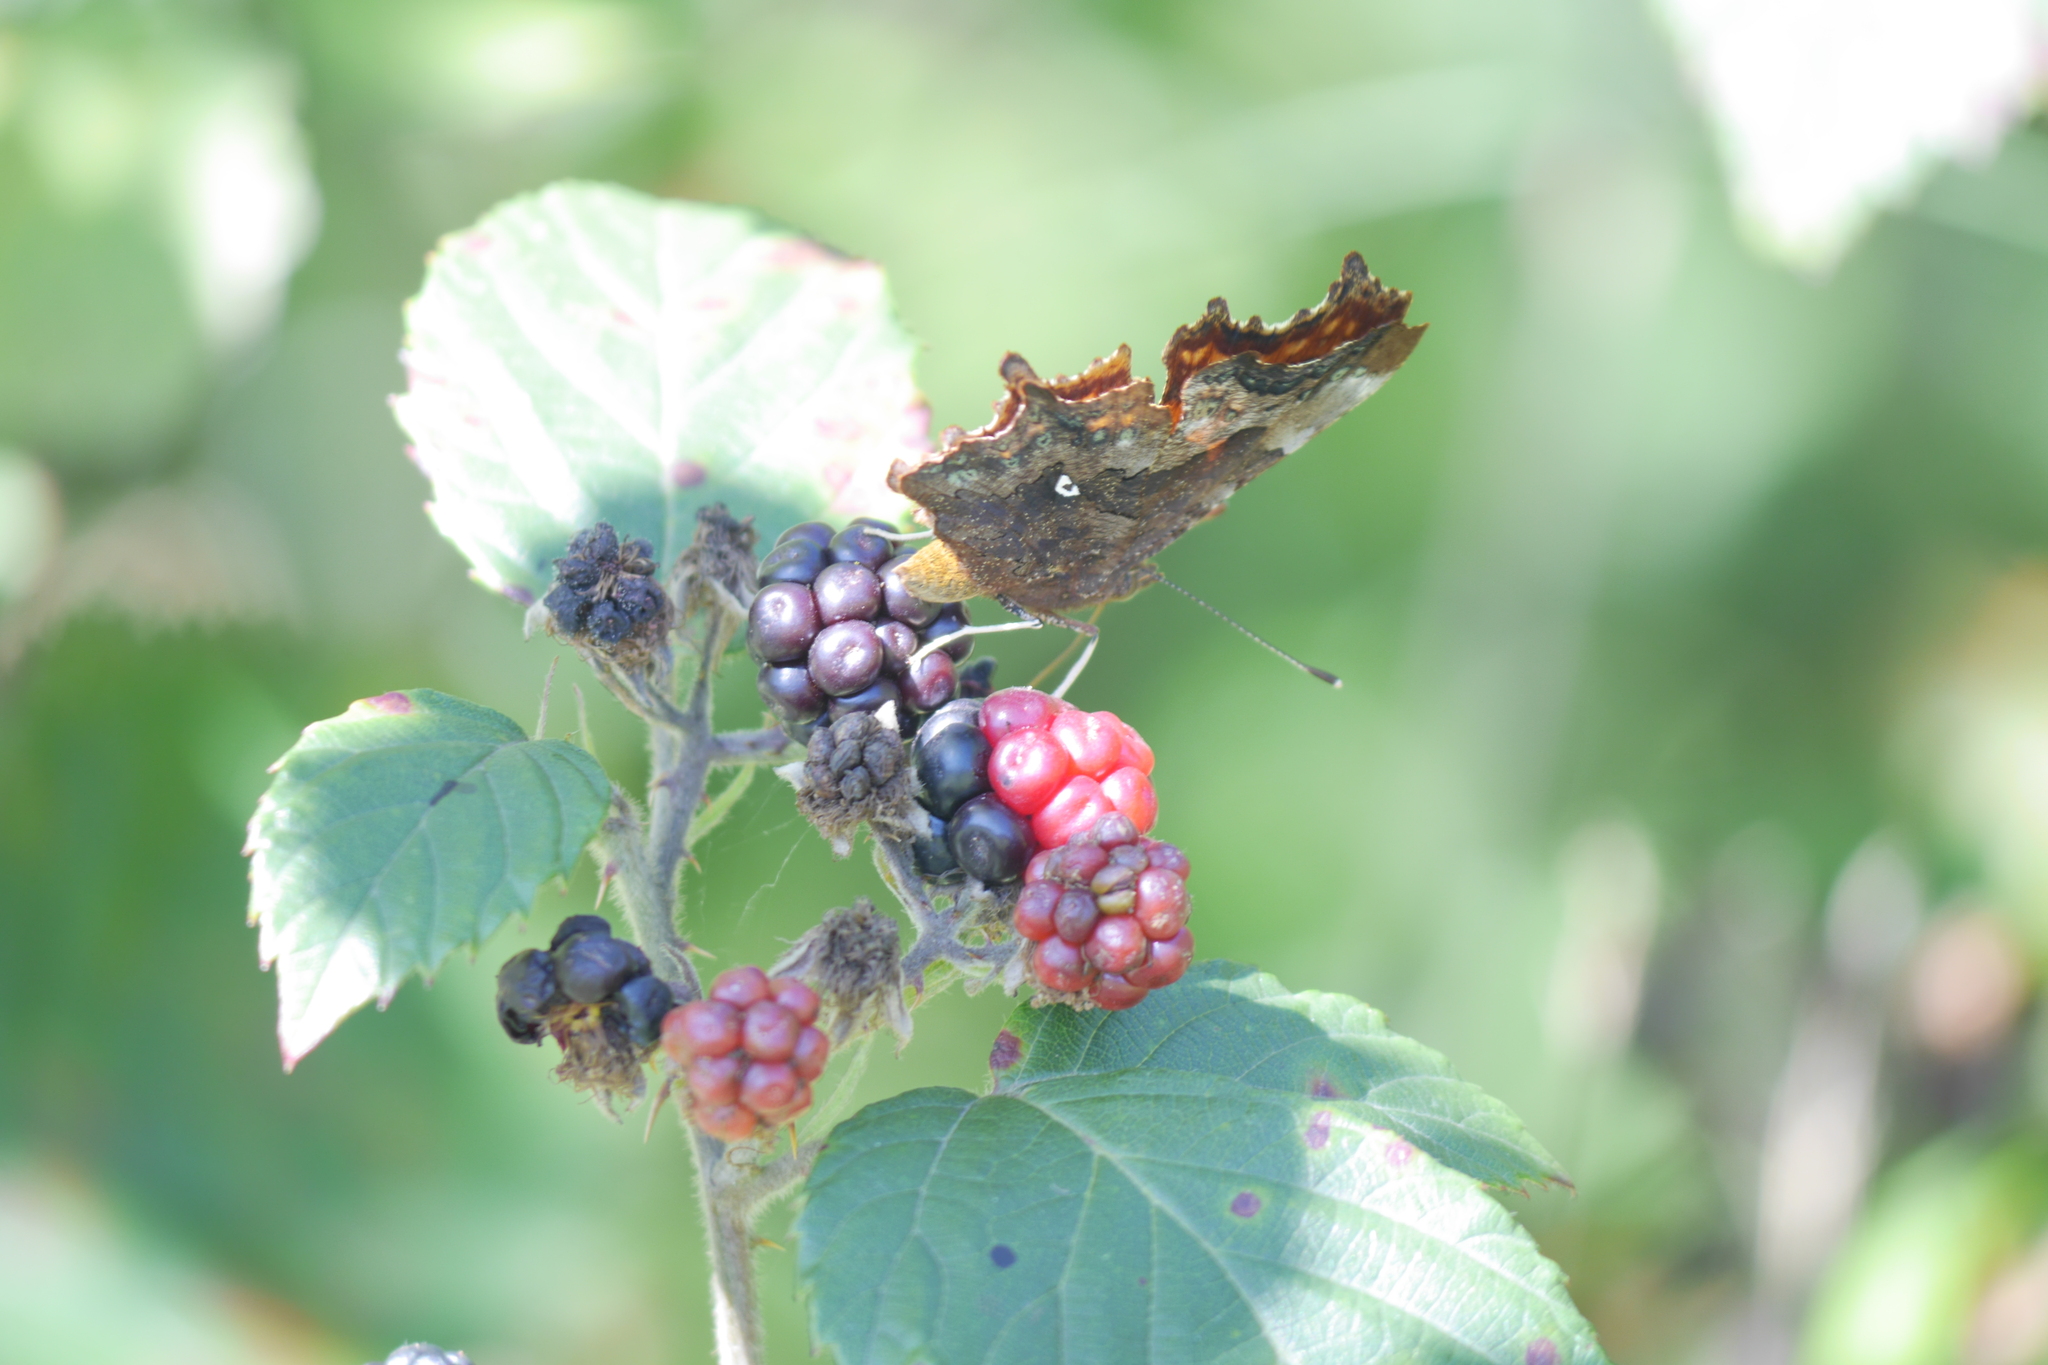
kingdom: Animalia
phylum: Arthropoda
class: Insecta
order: Lepidoptera
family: Nymphalidae
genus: Polygonia
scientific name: Polygonia c-album
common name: Comma
